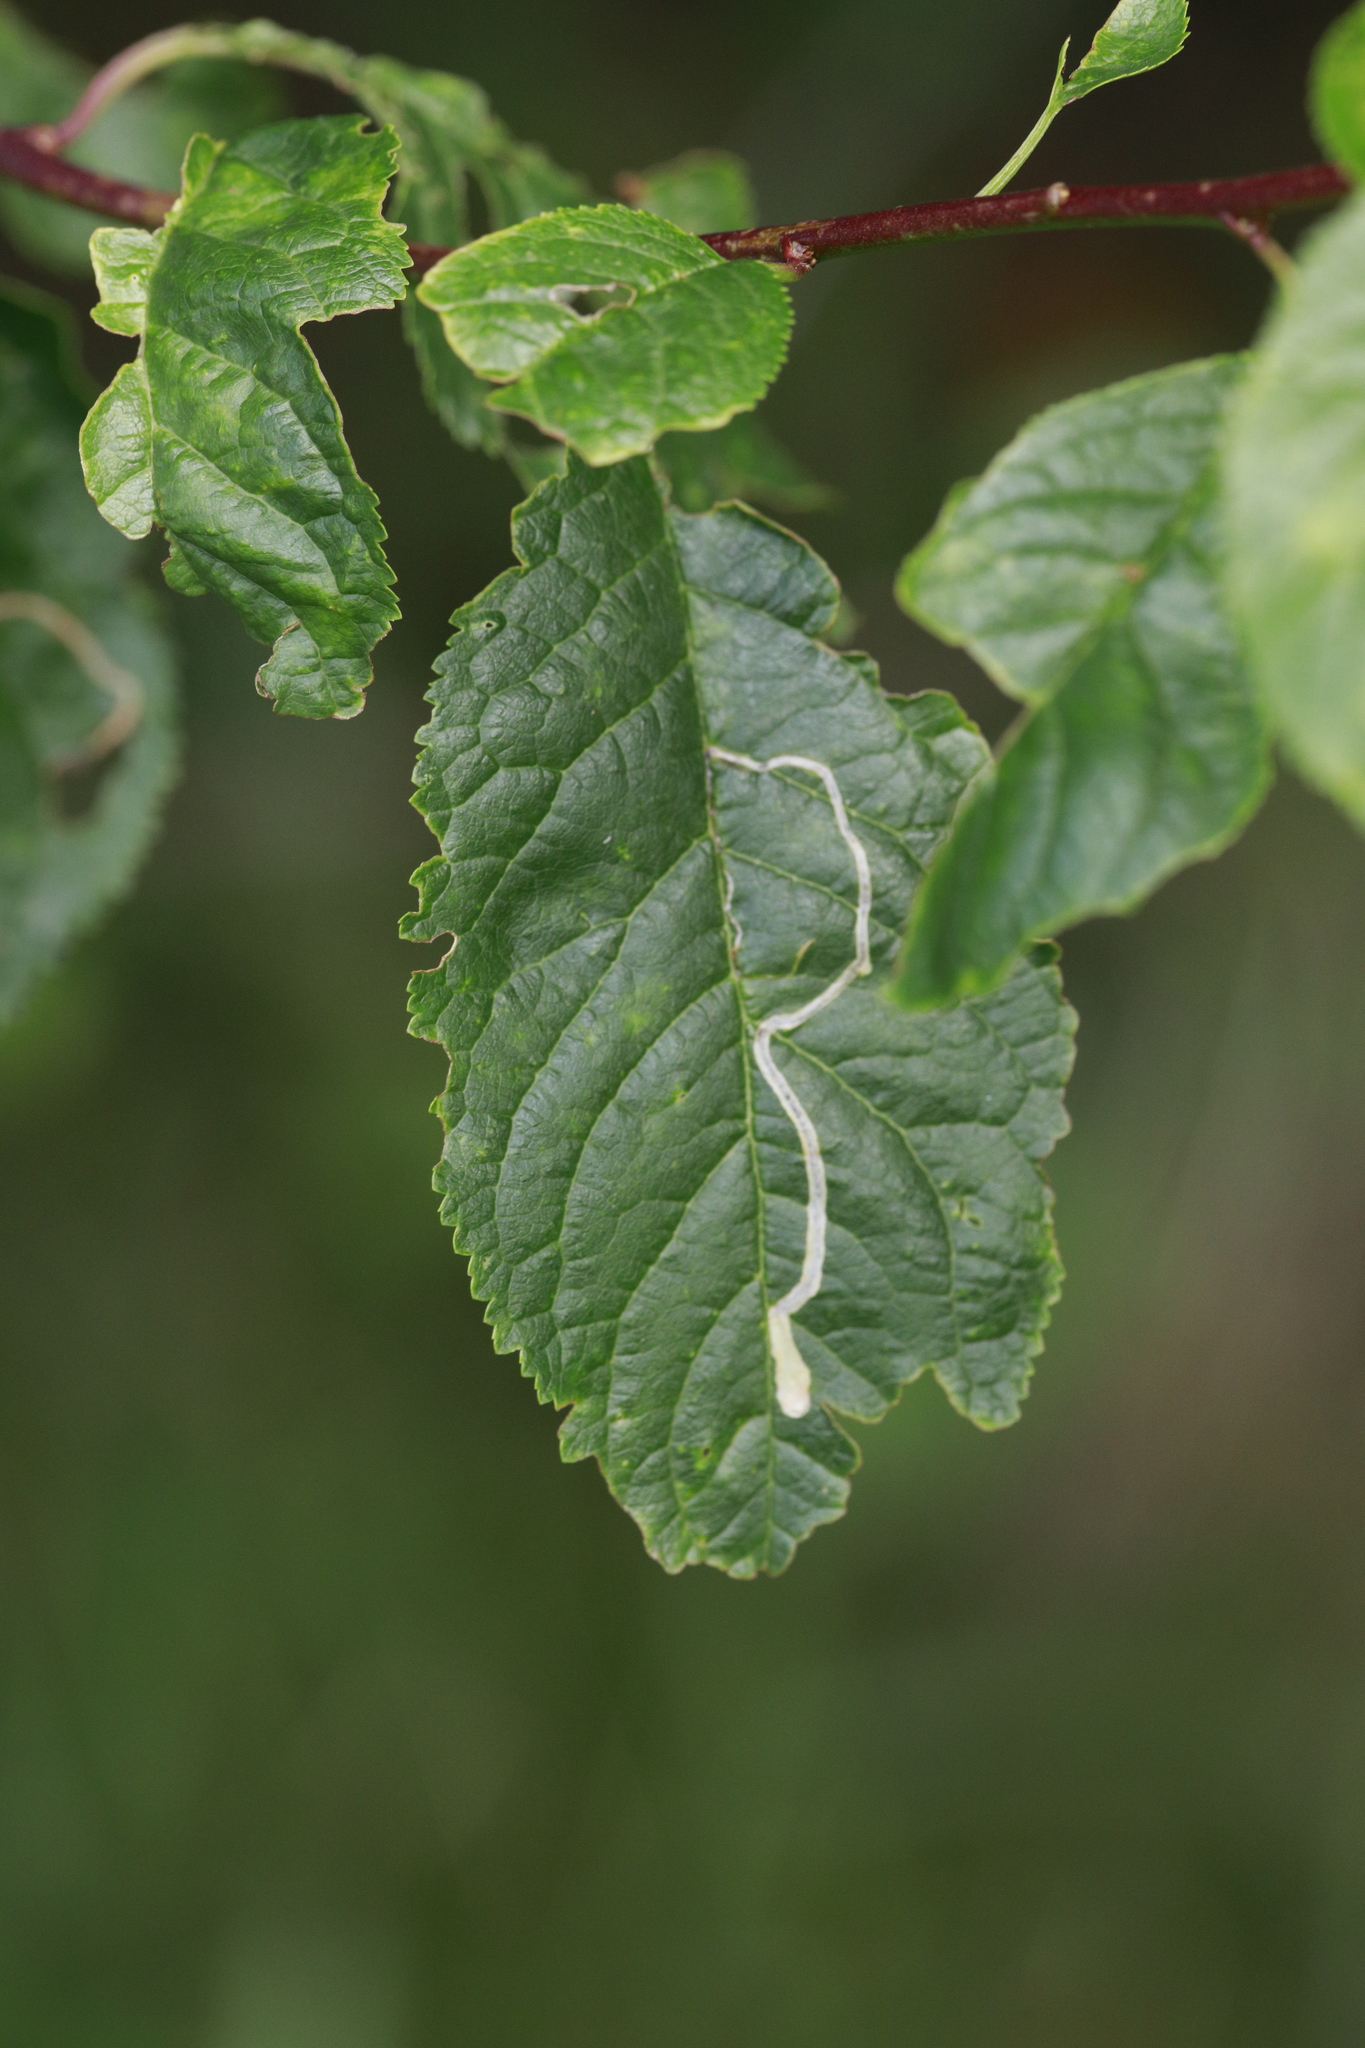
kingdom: Animalia
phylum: Arthropoda
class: Insecta
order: Lepidoptera
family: Lyonetiidae
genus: Lyonetia
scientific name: Lyonetia clerkella
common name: Apple leaf miner
